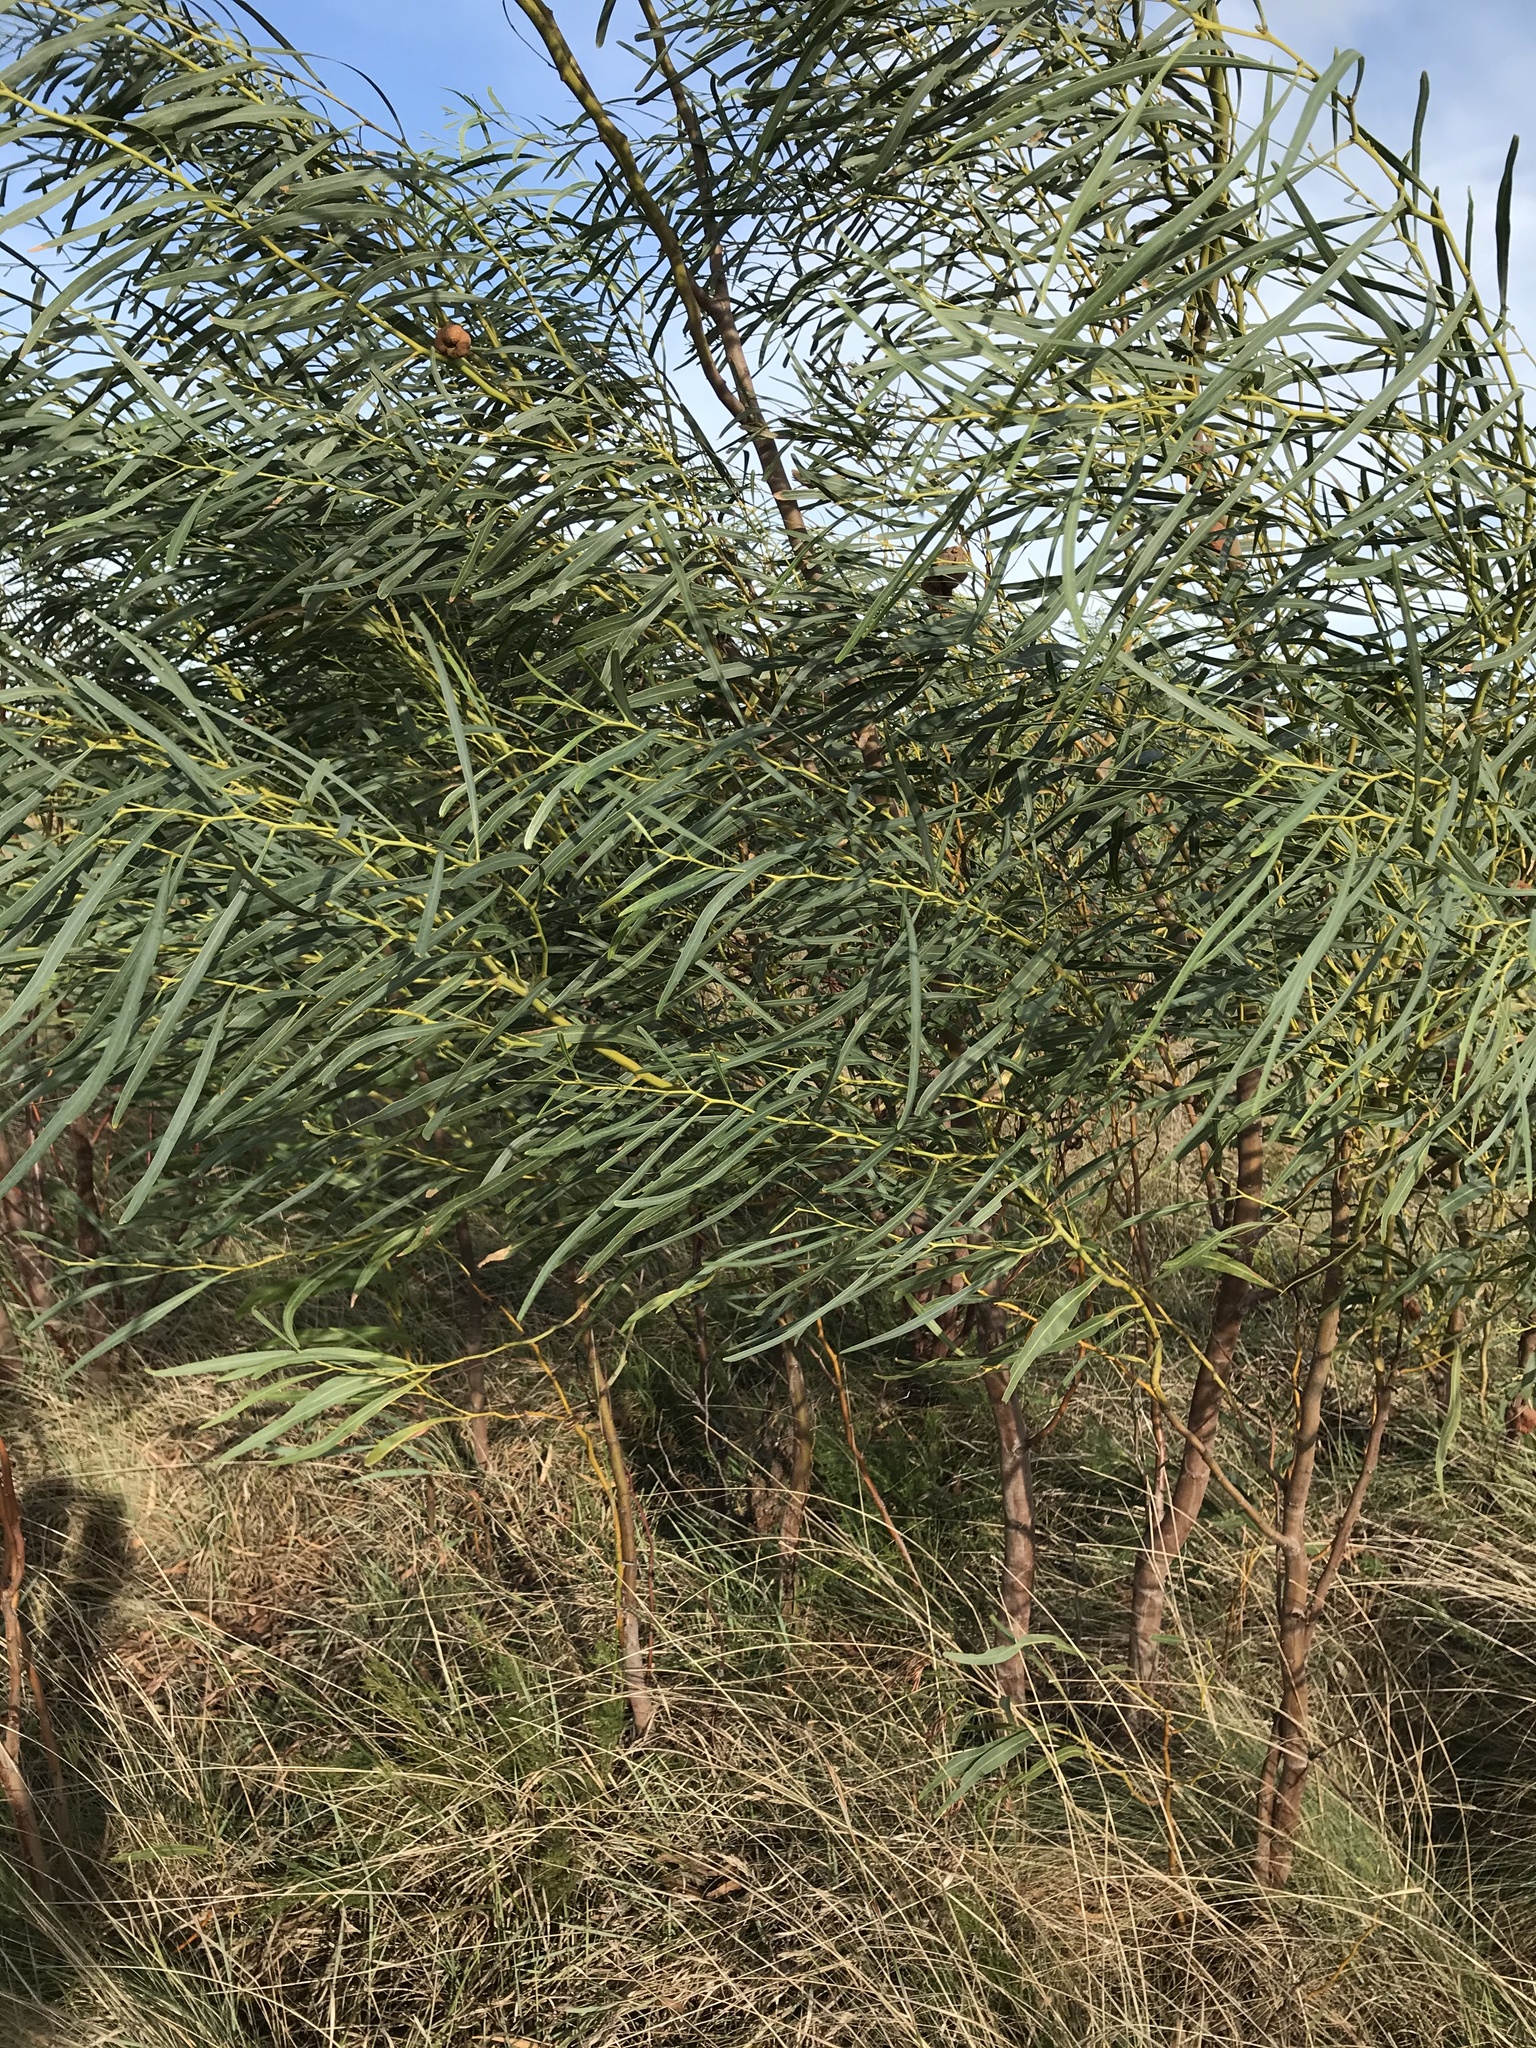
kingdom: Plantae
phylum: Tracheophyta
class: Magnoliopsida
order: Fabales
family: Fabaceae
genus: Acacia
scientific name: Acacia saligna
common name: Orange wattle
